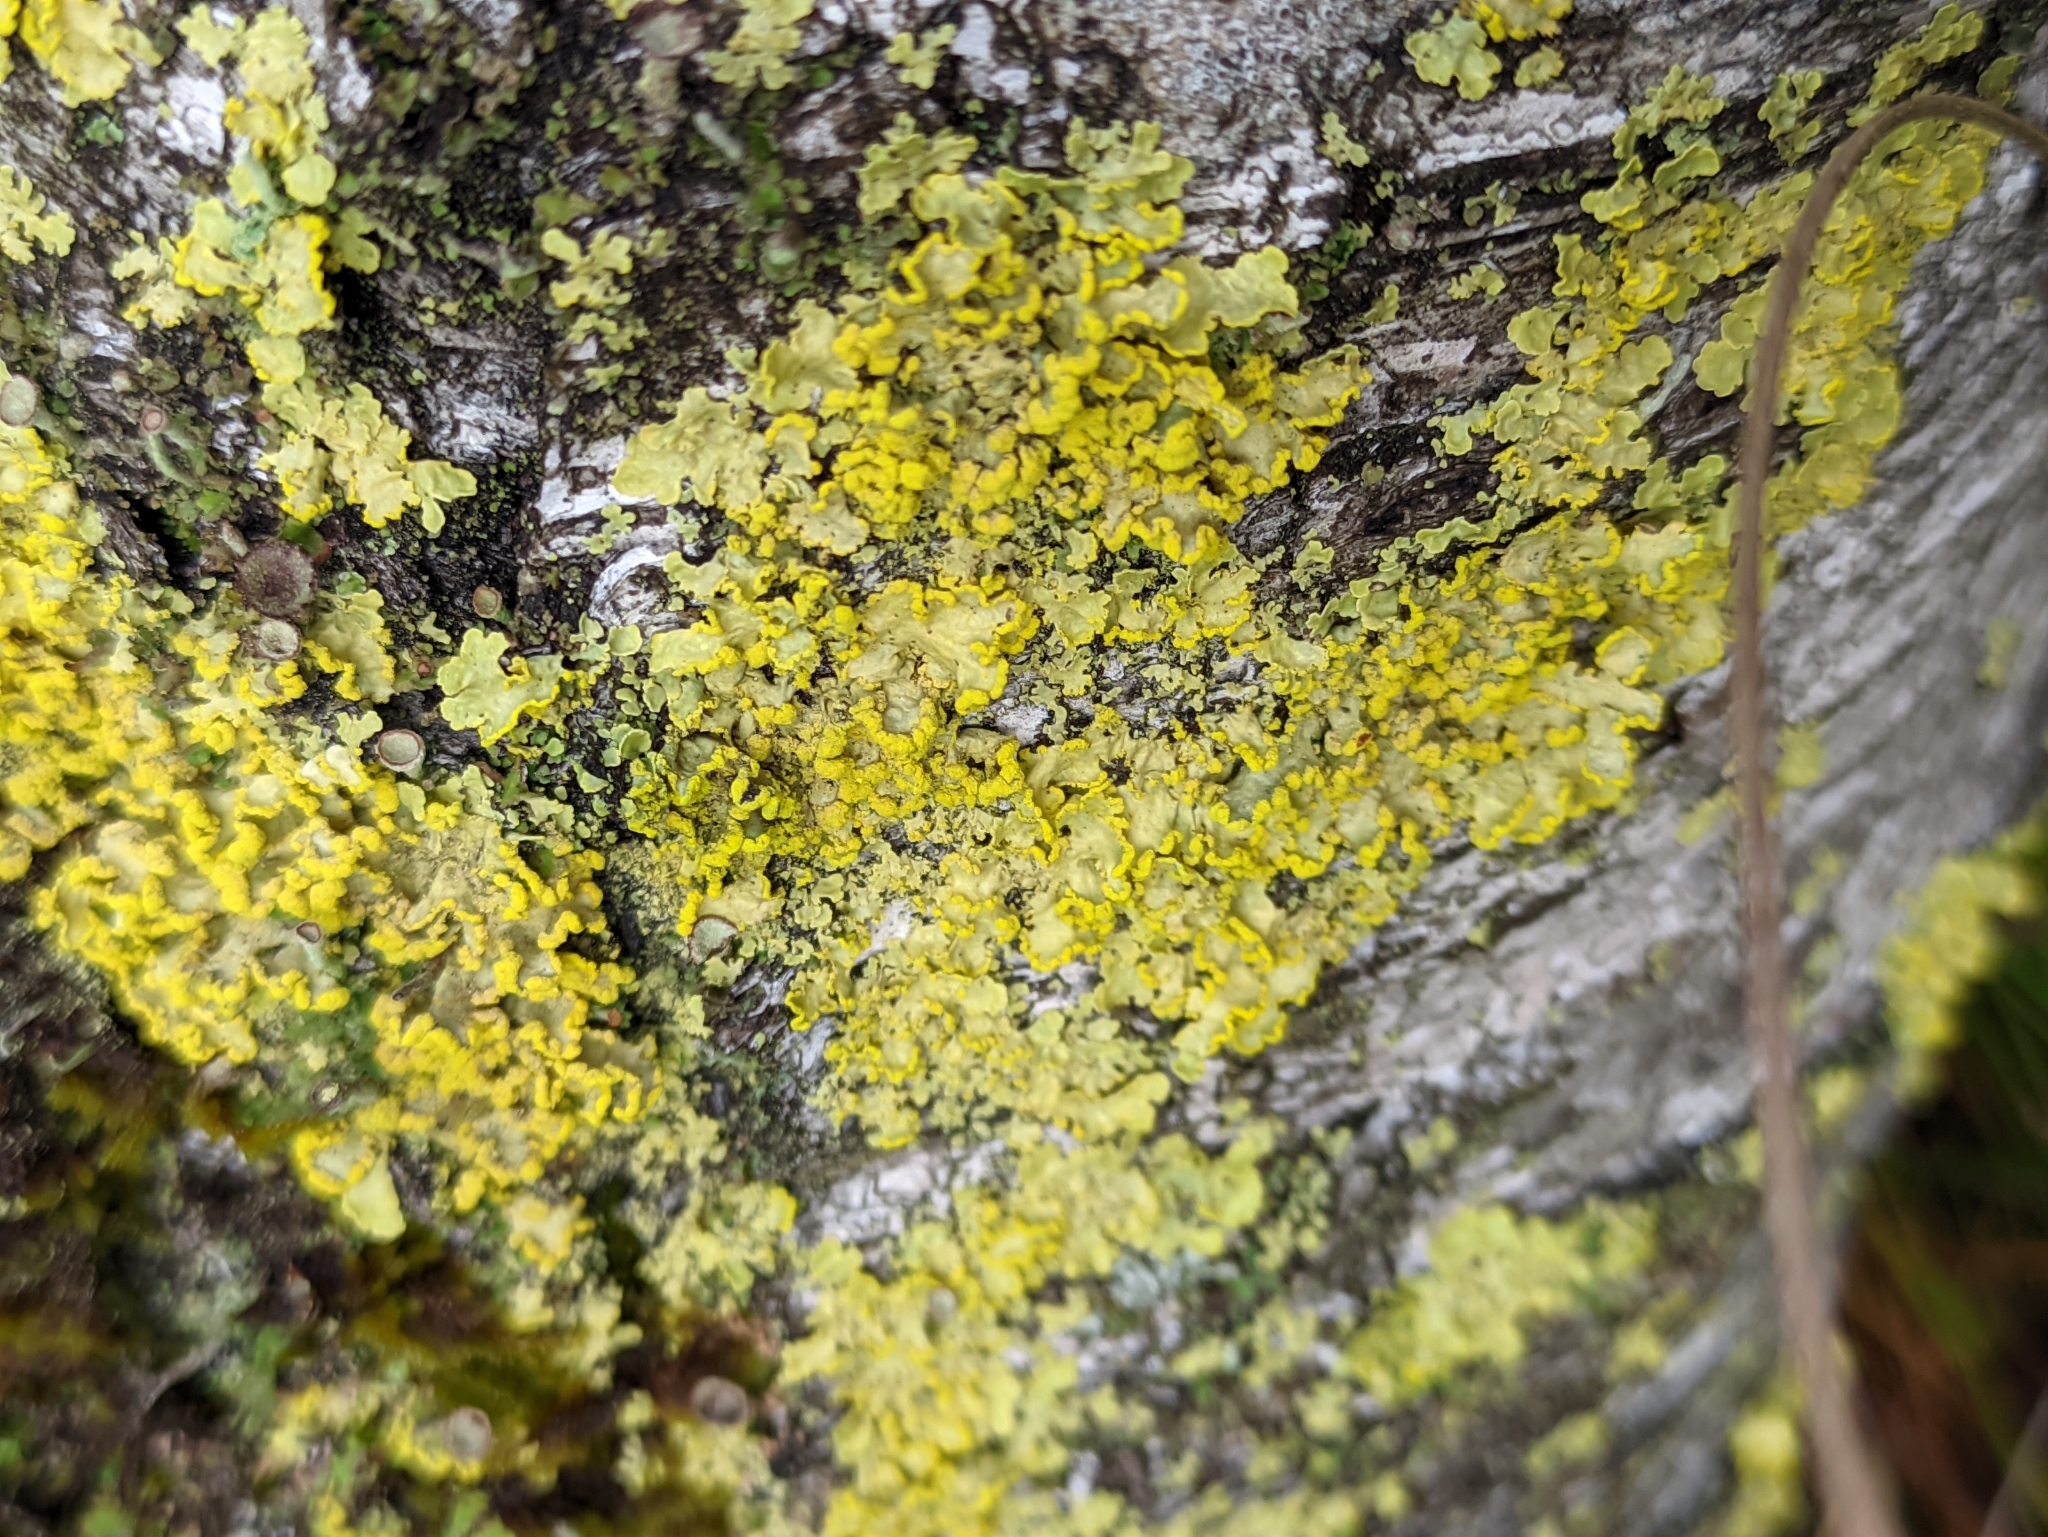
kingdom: Fungi
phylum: Ascomycota
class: Lecanoromycetes
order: Lecanorales
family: Parmeliaceae
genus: Vulpicida
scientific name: Vulpicida pinastri
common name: Powdered sunshine lichen
